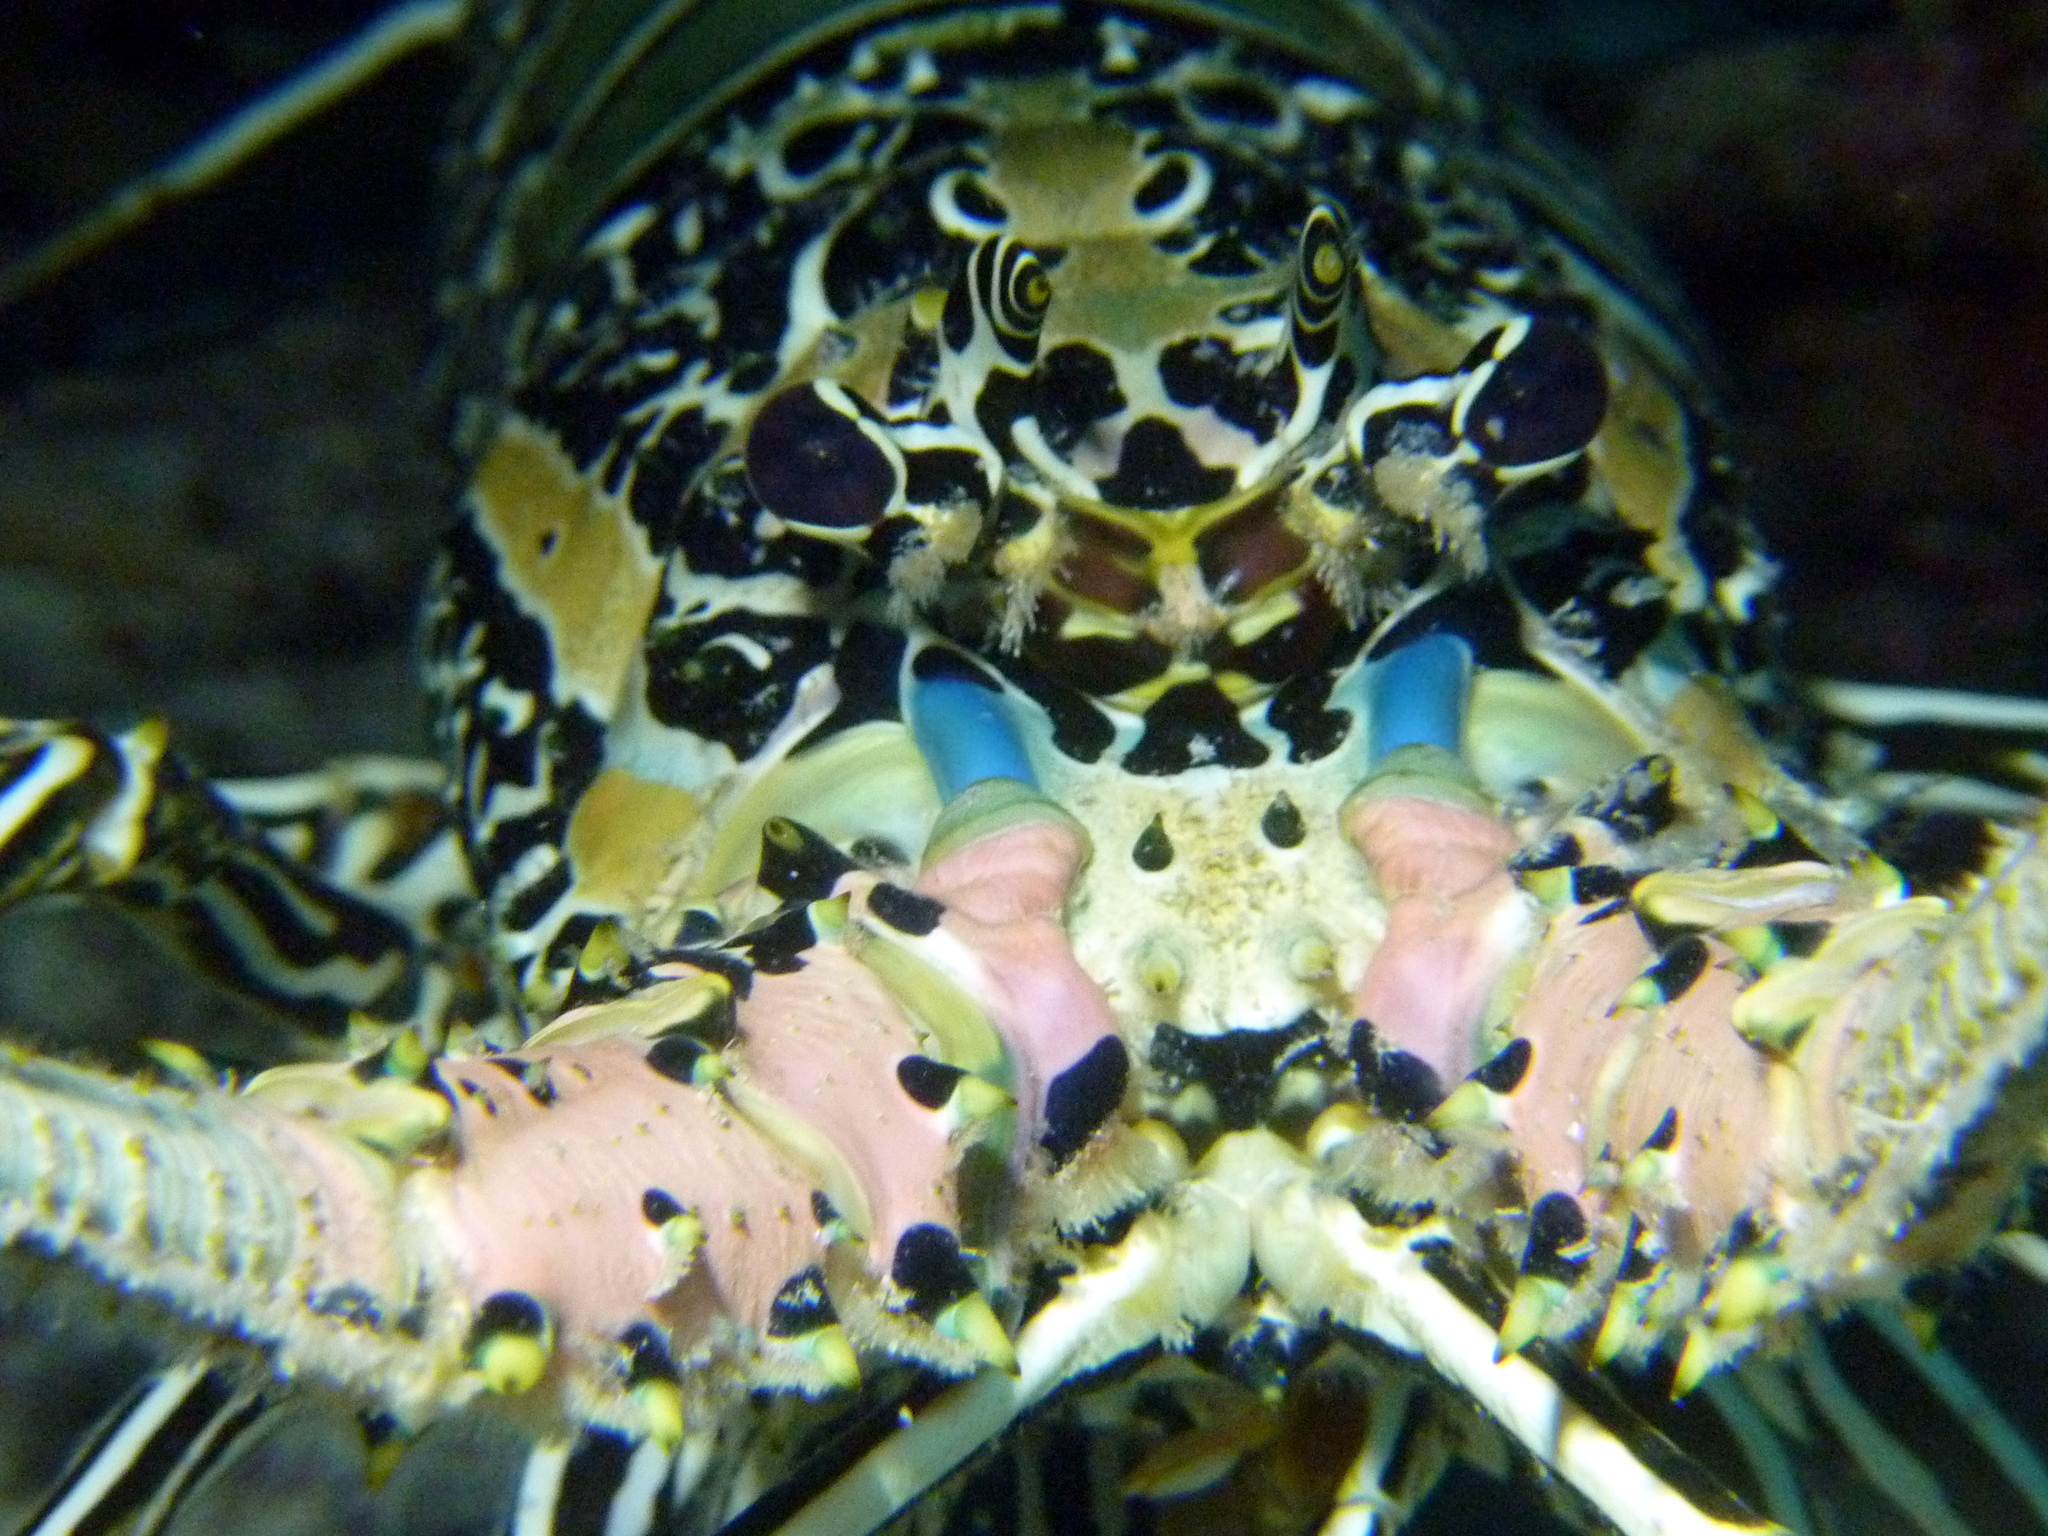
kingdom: Animalia
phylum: Arthropoda
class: Malacostraca
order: Decapoda
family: Palinuridae
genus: Panulirus
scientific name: Panulirus versicolor
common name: Painted spiny lobster
